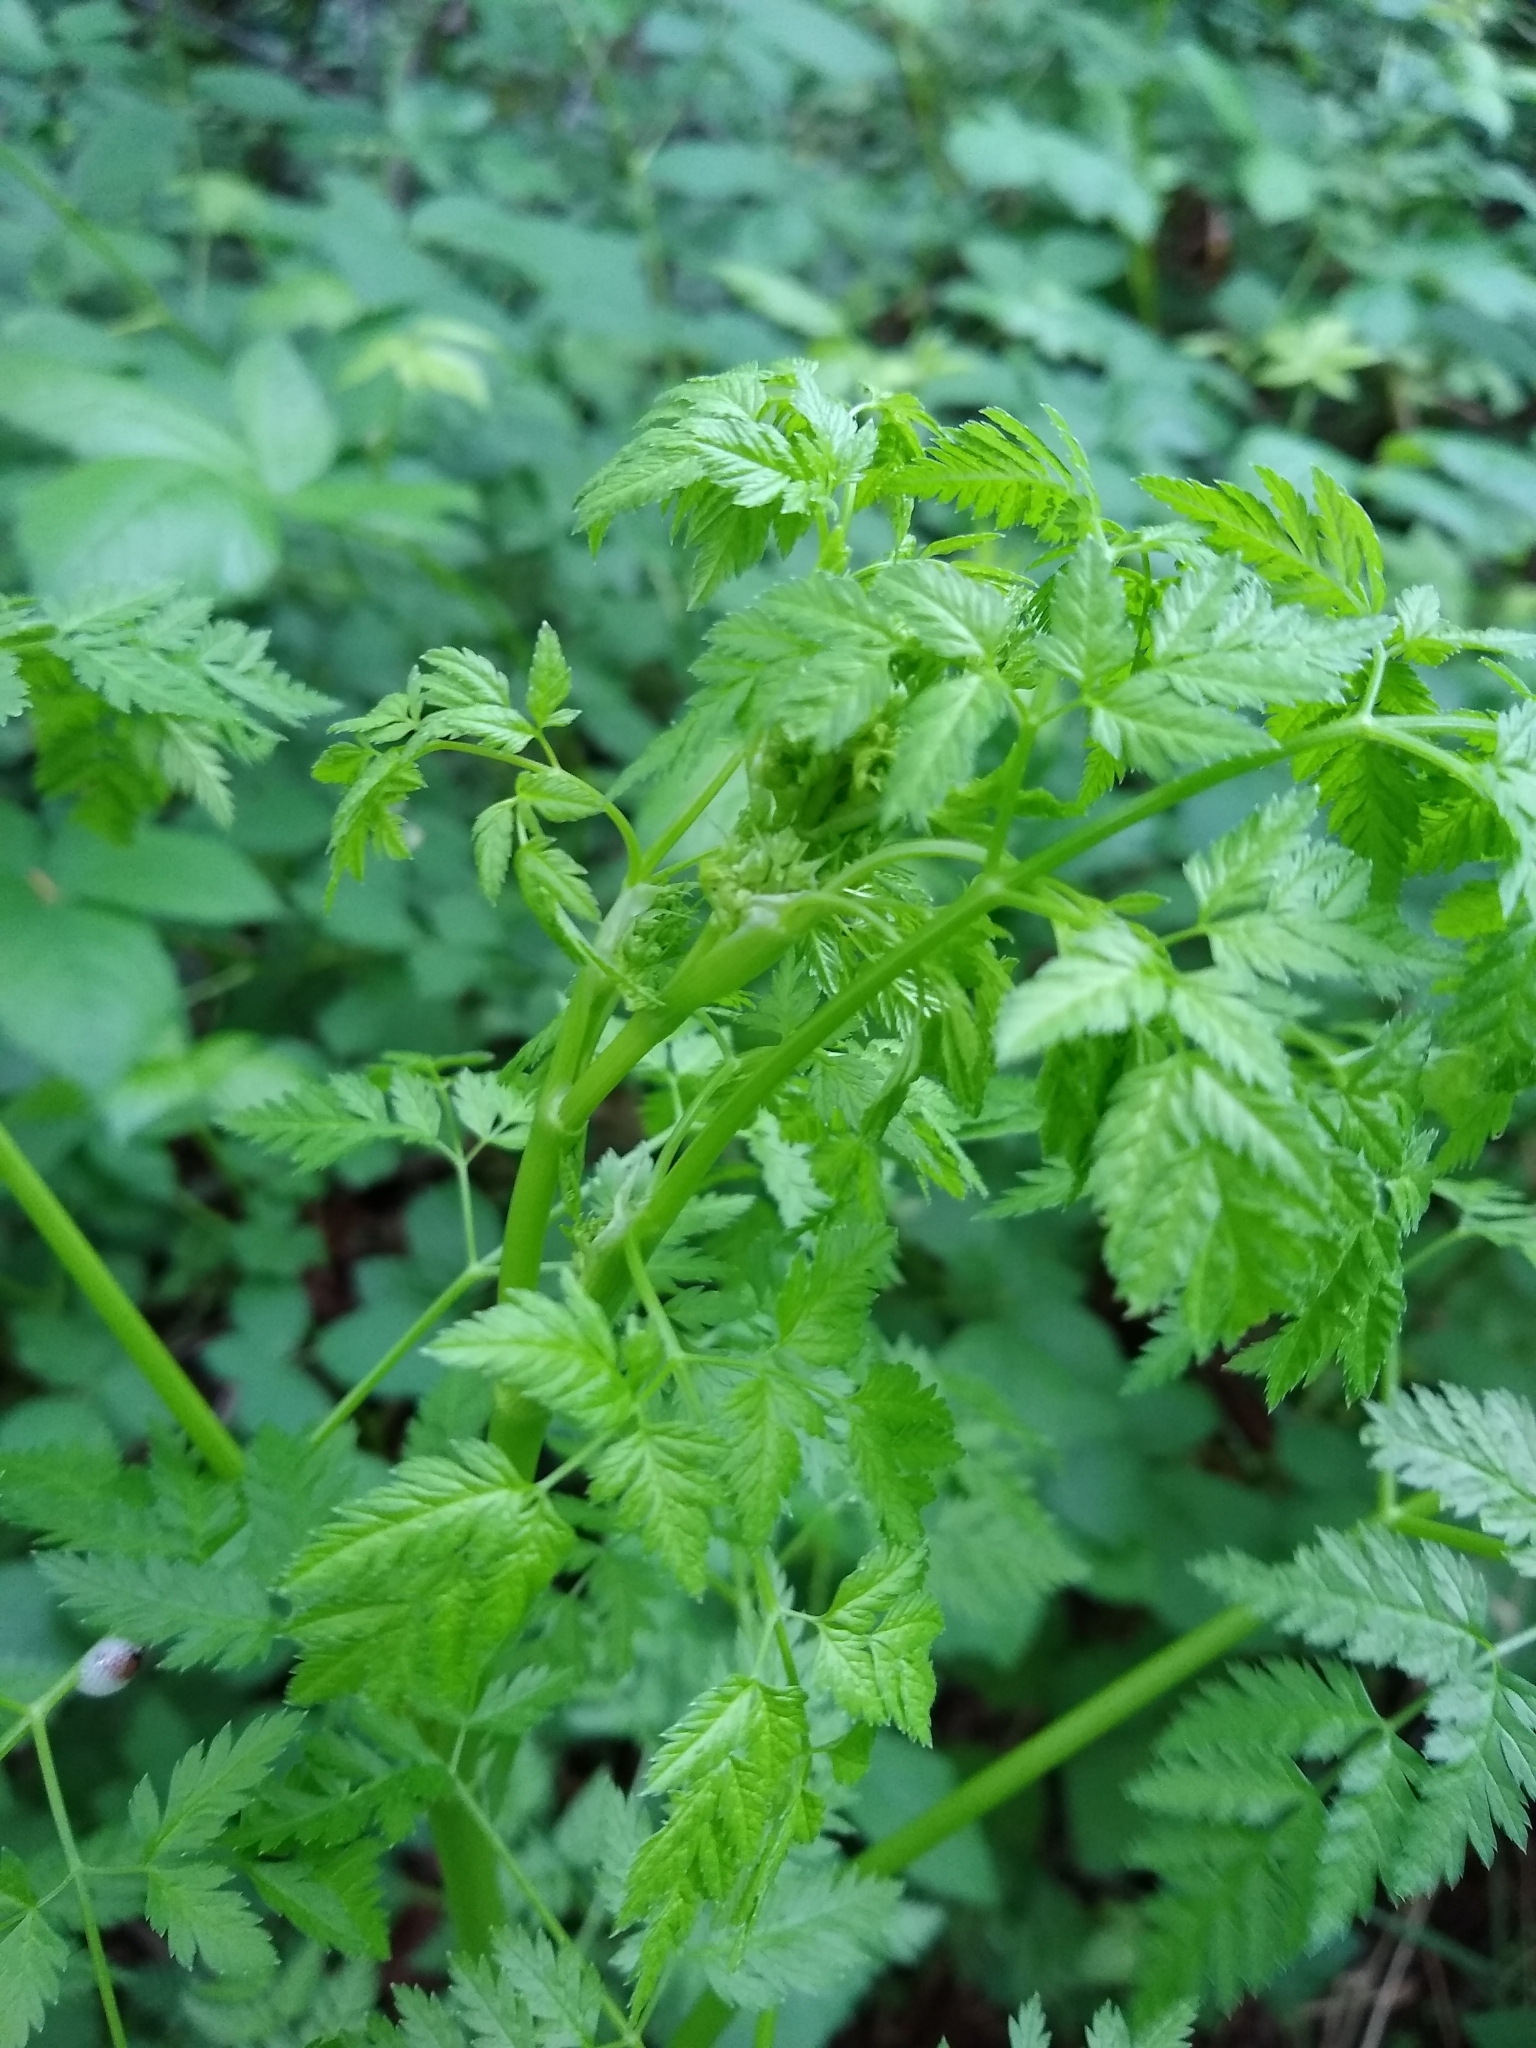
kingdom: Plantae
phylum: Tracheophyta
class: Magnoliopsida
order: Apiales
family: Apiaceae
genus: Conium
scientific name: Conium maculatum
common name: Hemlock
